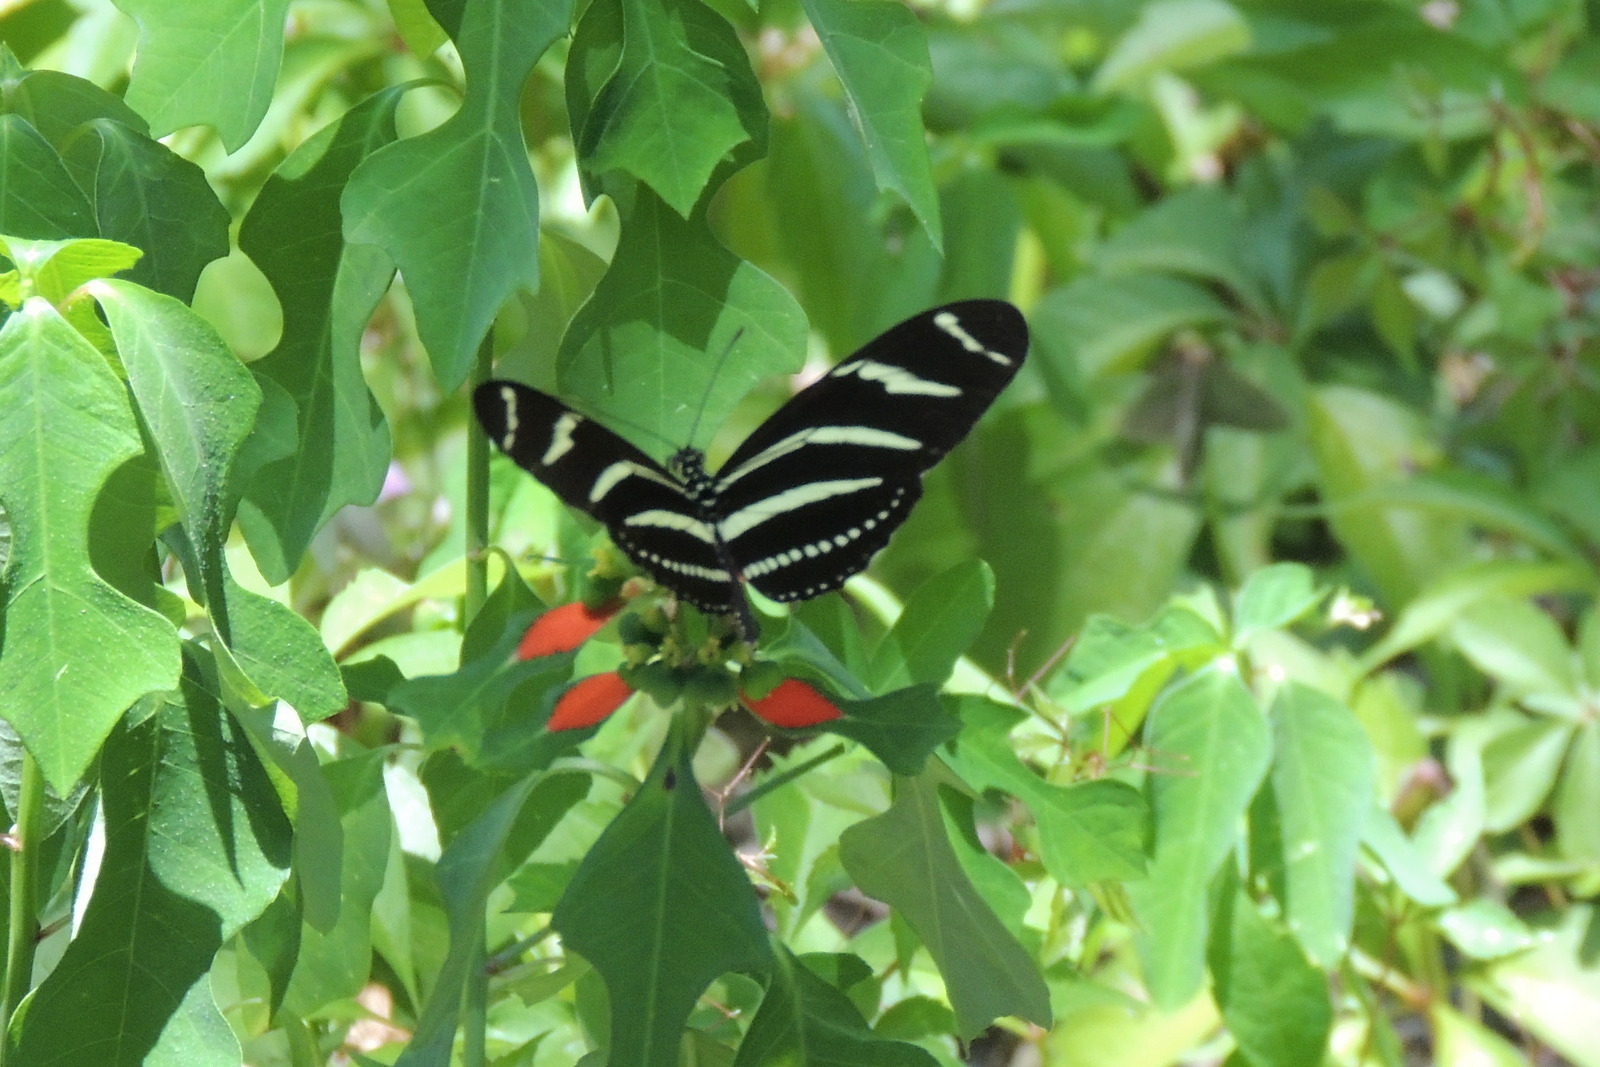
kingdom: Animalia
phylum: Arthropoda
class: Insecta
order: Lepidoptera
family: Nymphalidae
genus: Heliconius
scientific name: Heliconius charithonia
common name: Zebra long wing
